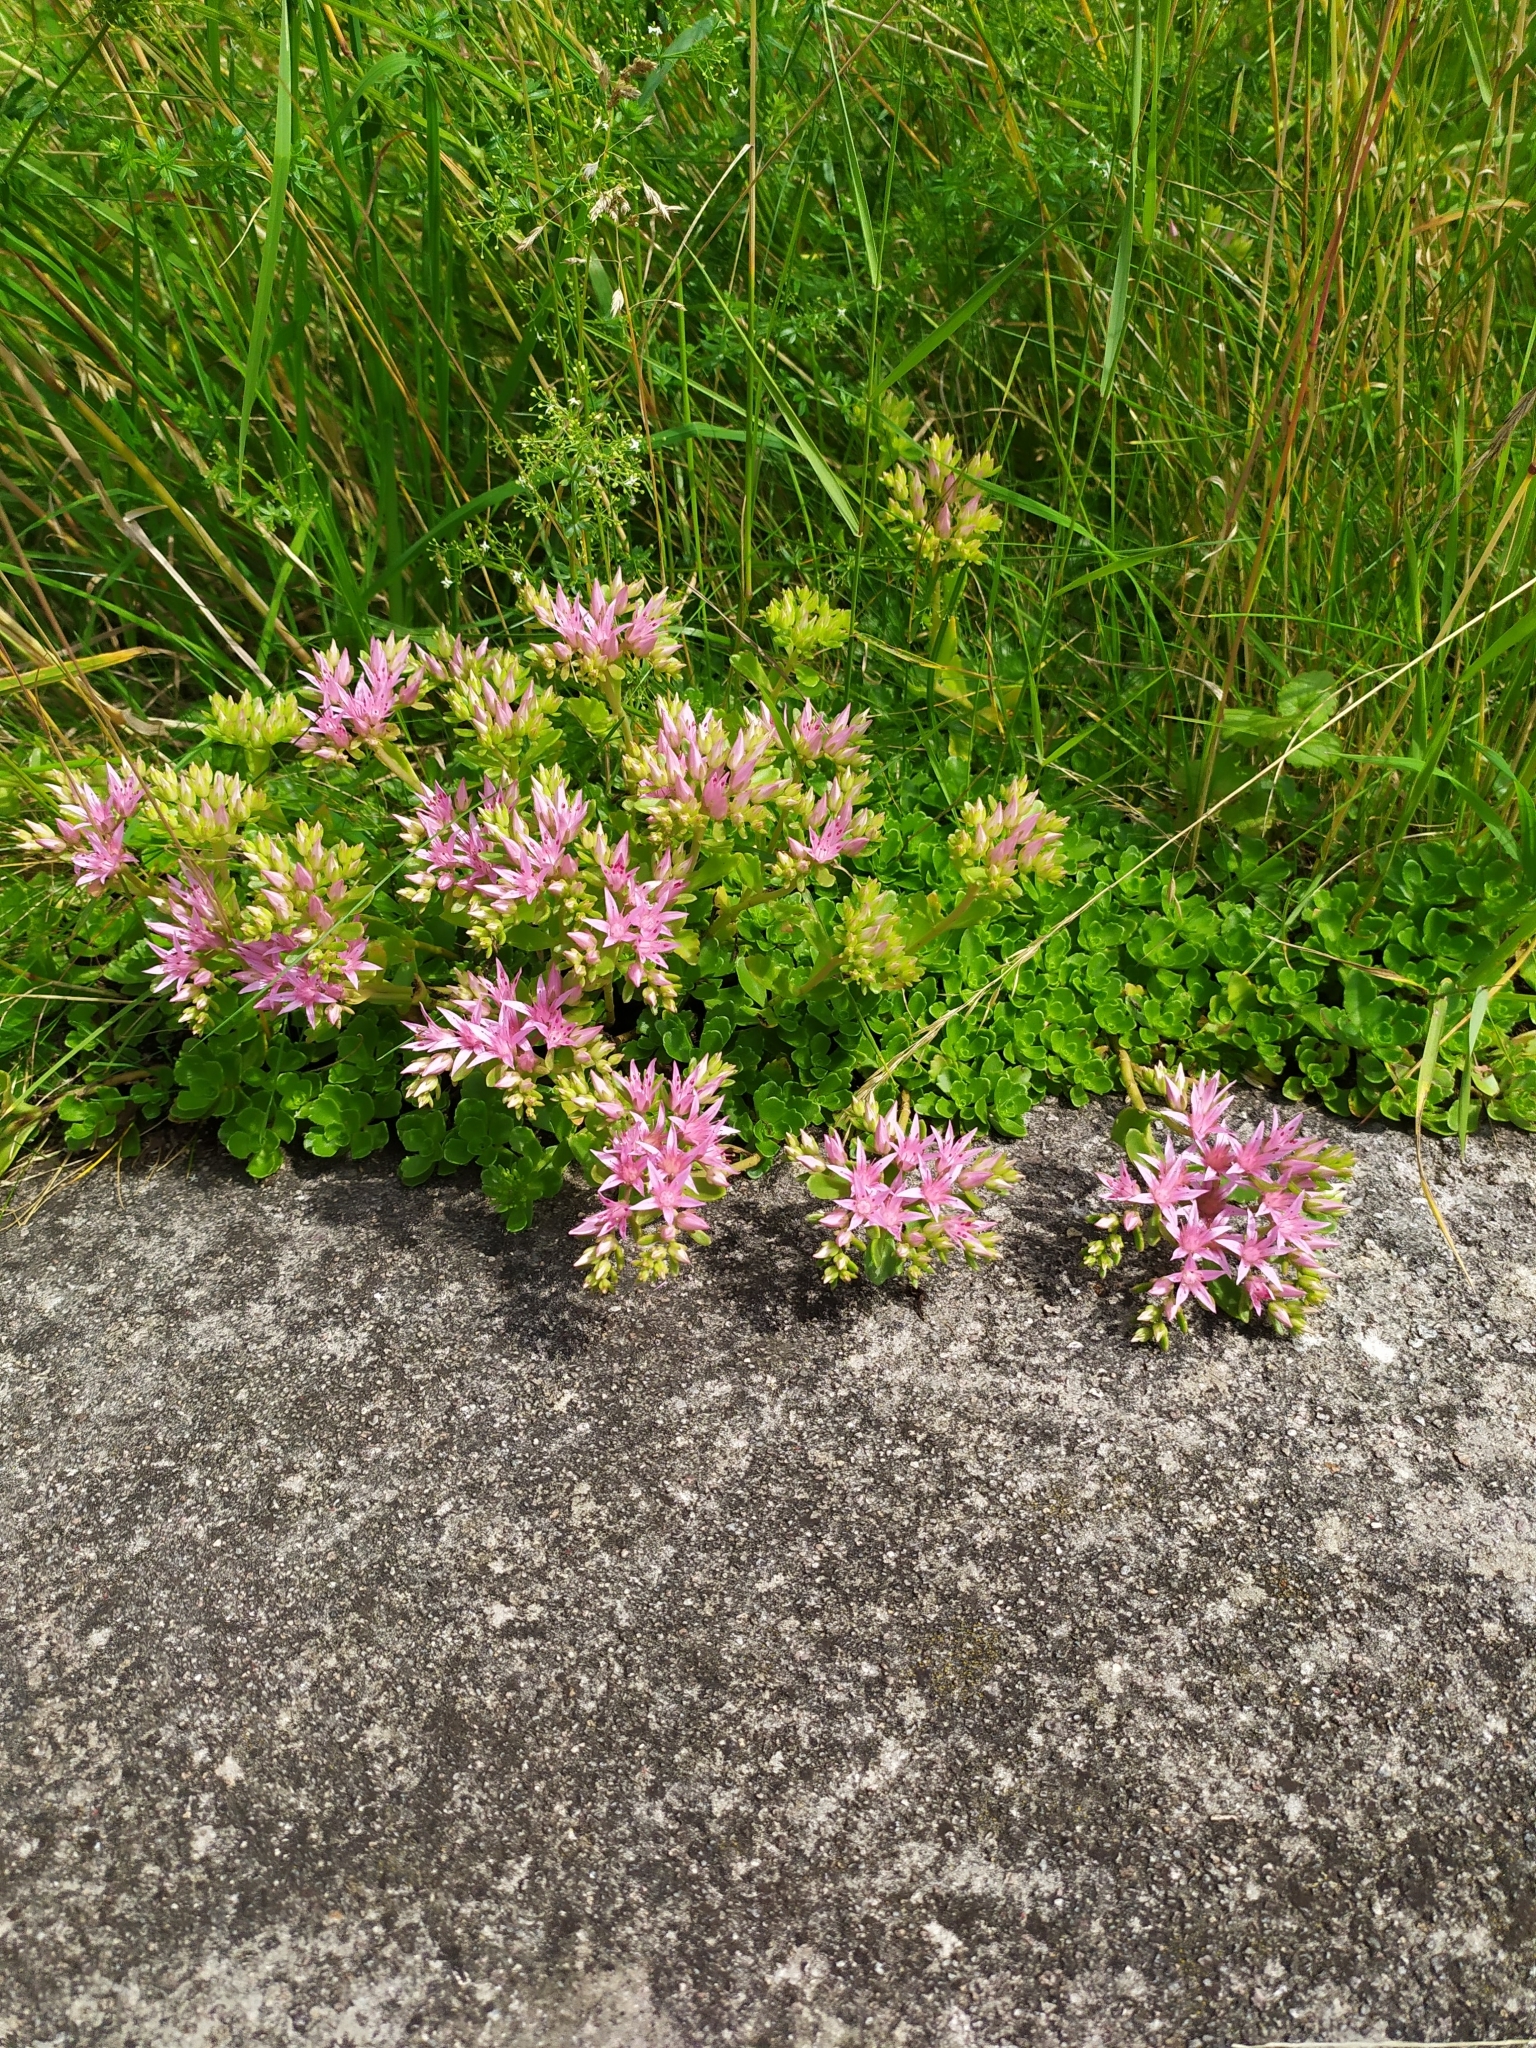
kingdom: Plantae
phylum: Tracheophyta
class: Magnoliopsida
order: Saxifragales
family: Crassulaceae
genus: Phedimus
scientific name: Phedimus spurius
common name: Caucasian stonecrop
